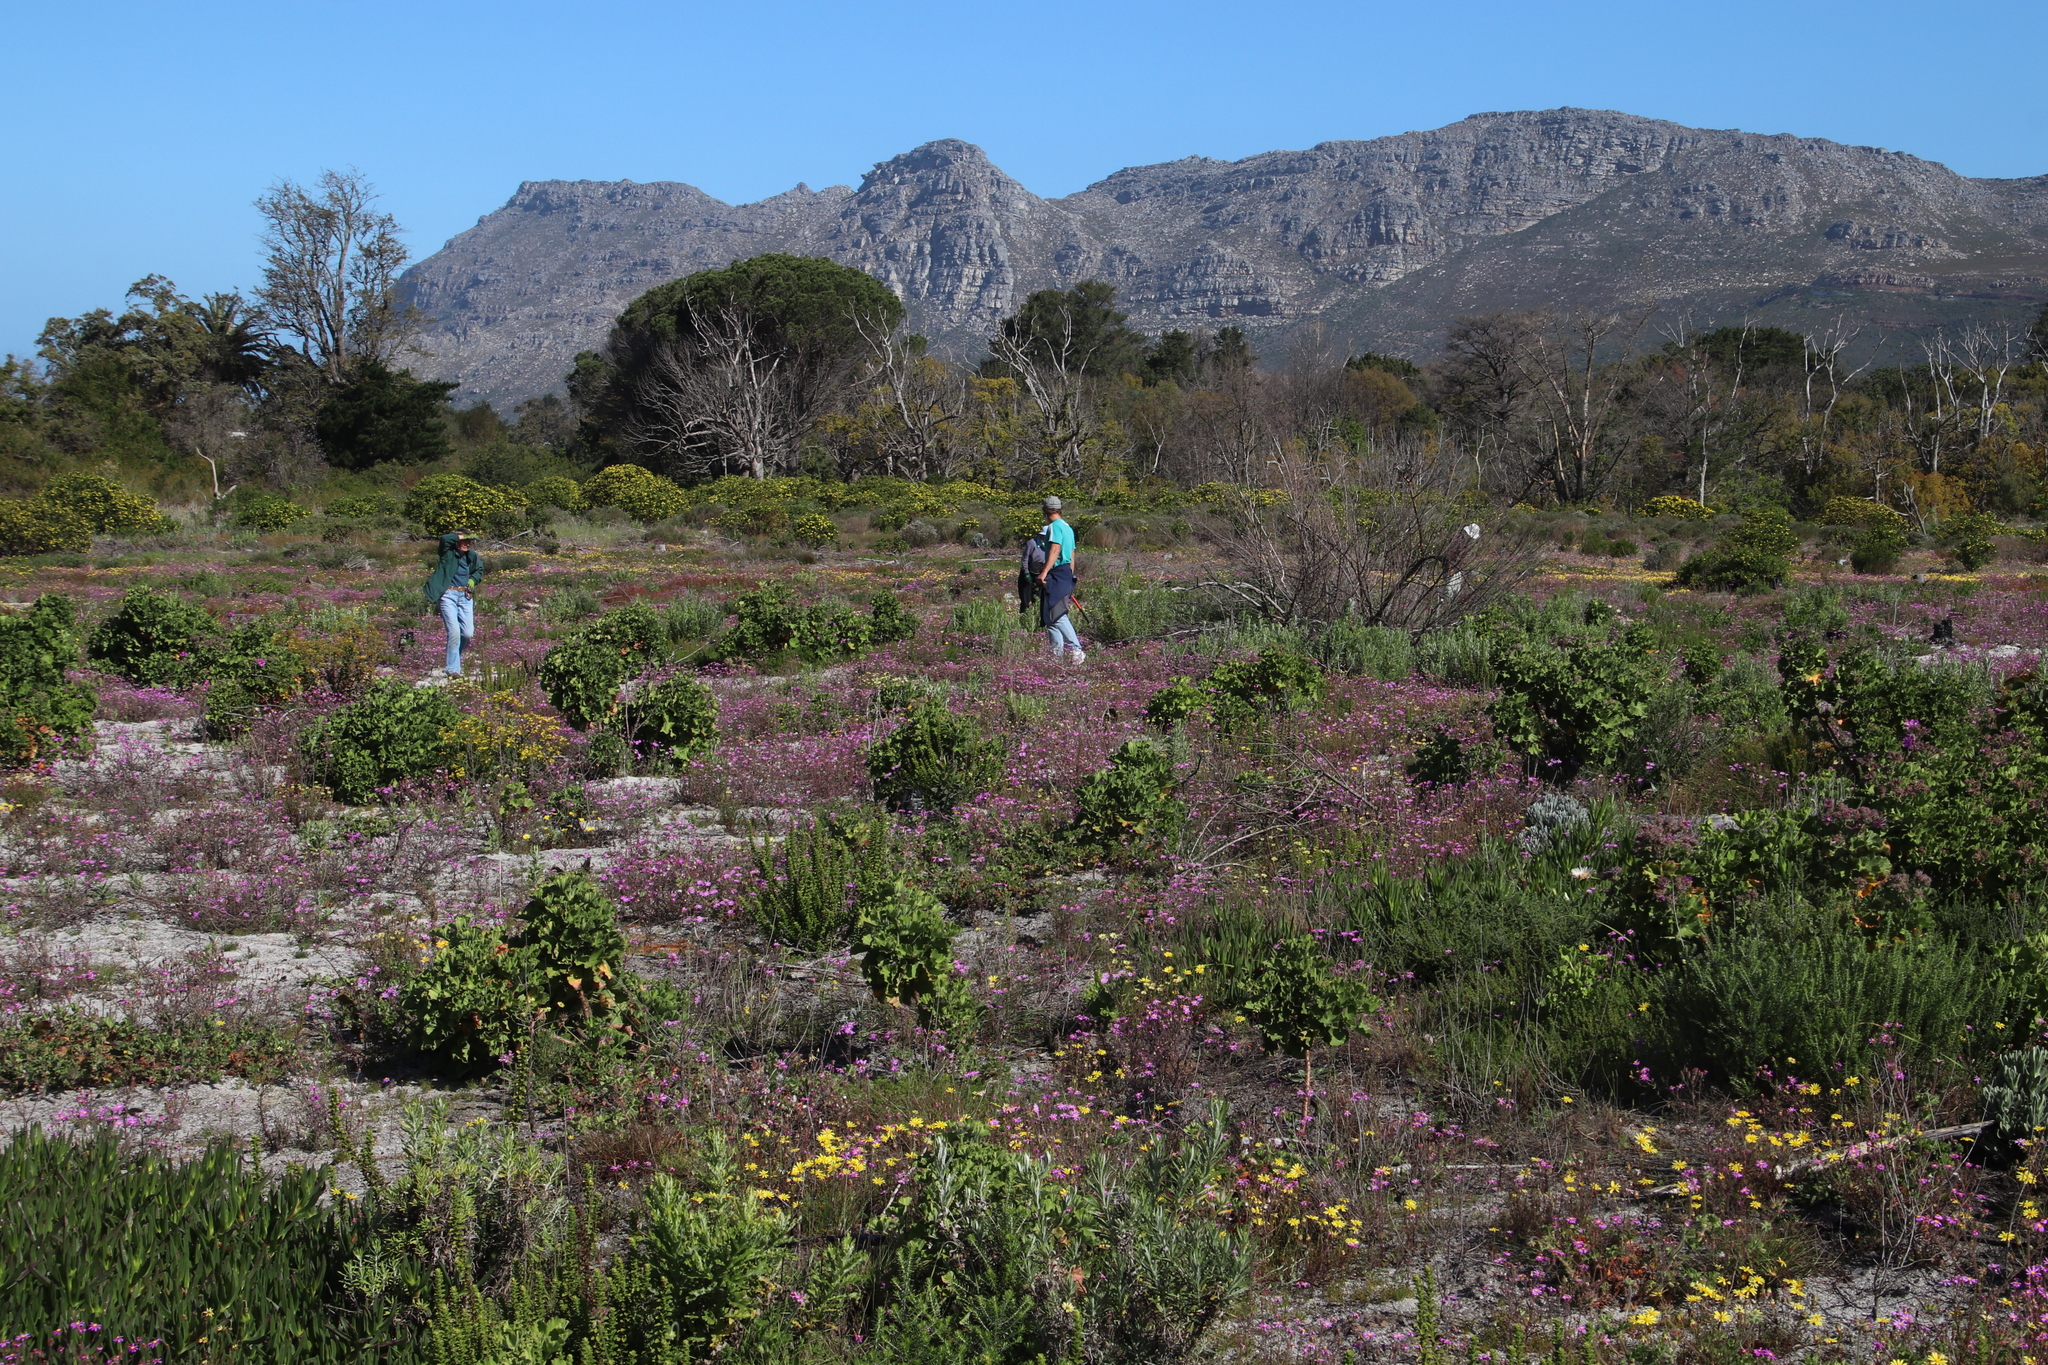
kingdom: Plantae
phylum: Tracheophyta
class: Magnoliopsida
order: Geraniales
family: Geraniaceae
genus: Pelargonium
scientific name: Pelargonium cucullatum
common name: Tree pelargonium
